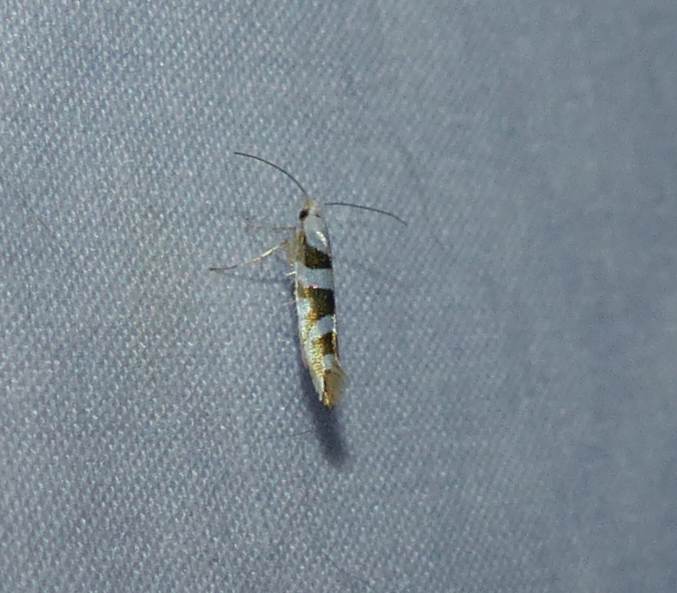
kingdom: Animalia
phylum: Arthropoda
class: Insecta
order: Lepidoptera
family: Argyresthiidae
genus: Argyresthia
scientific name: Argyresthia calliphanes
